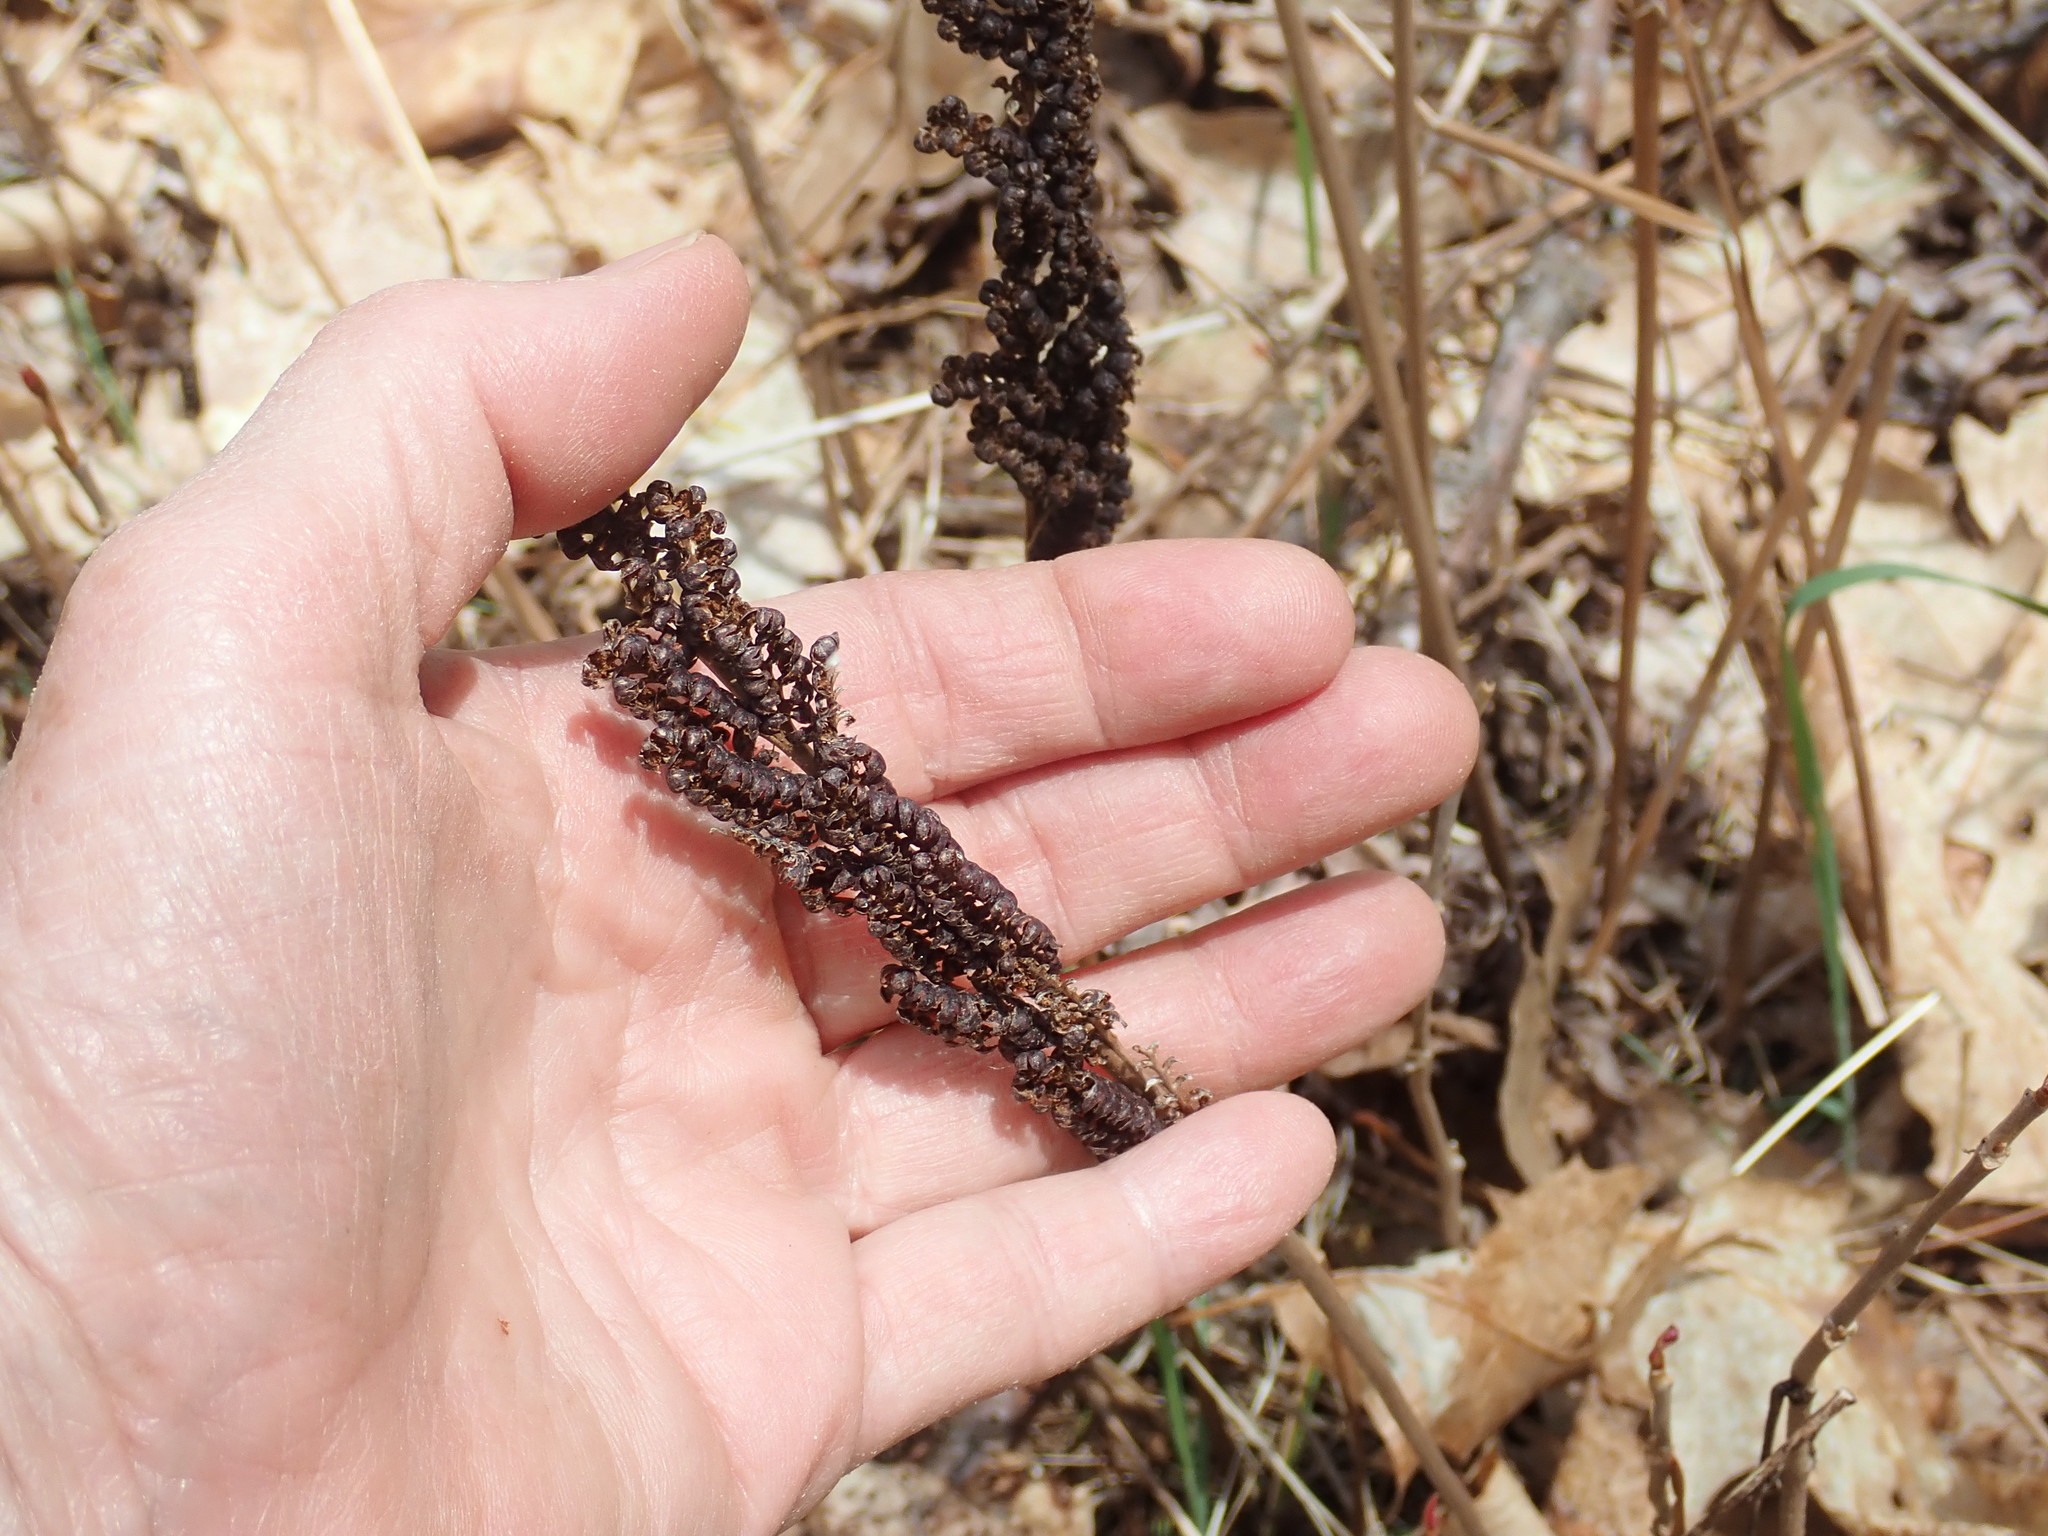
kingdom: Plantae
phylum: Tracheophyta
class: Polypodiopsida
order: Polypodiales
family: Onocleaceae
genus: Onoclea
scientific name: Onoclea sensibilis
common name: Sensitive fern
